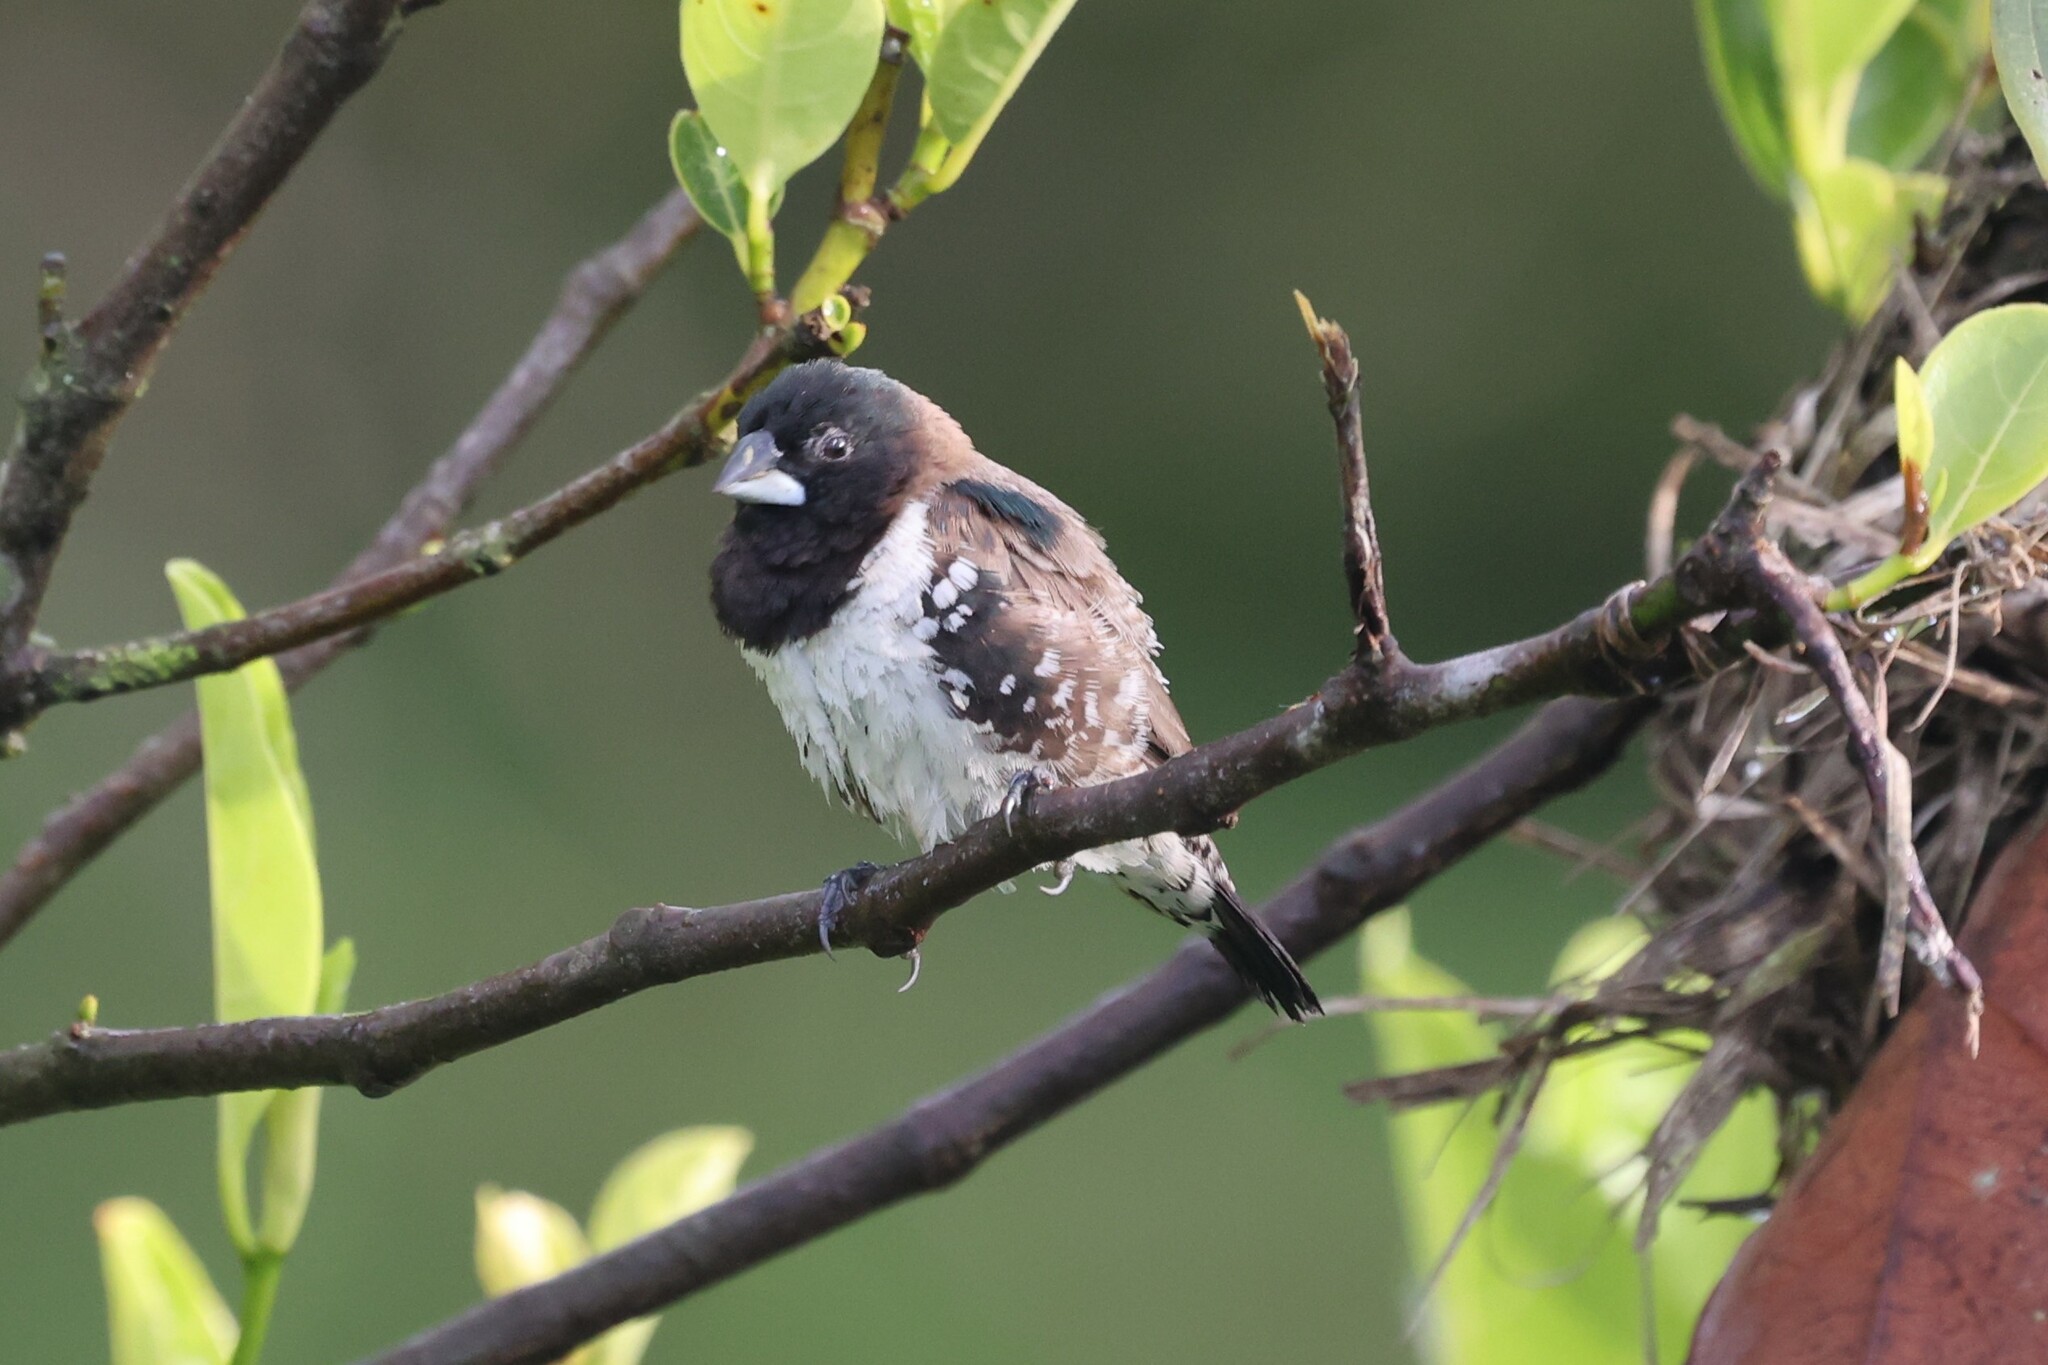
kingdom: Animalia
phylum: Chordata
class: Aves
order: Passeriformes
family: Estrildidae
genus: Lonchura
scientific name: Lonchura cucullata
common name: Bronze mannikin
